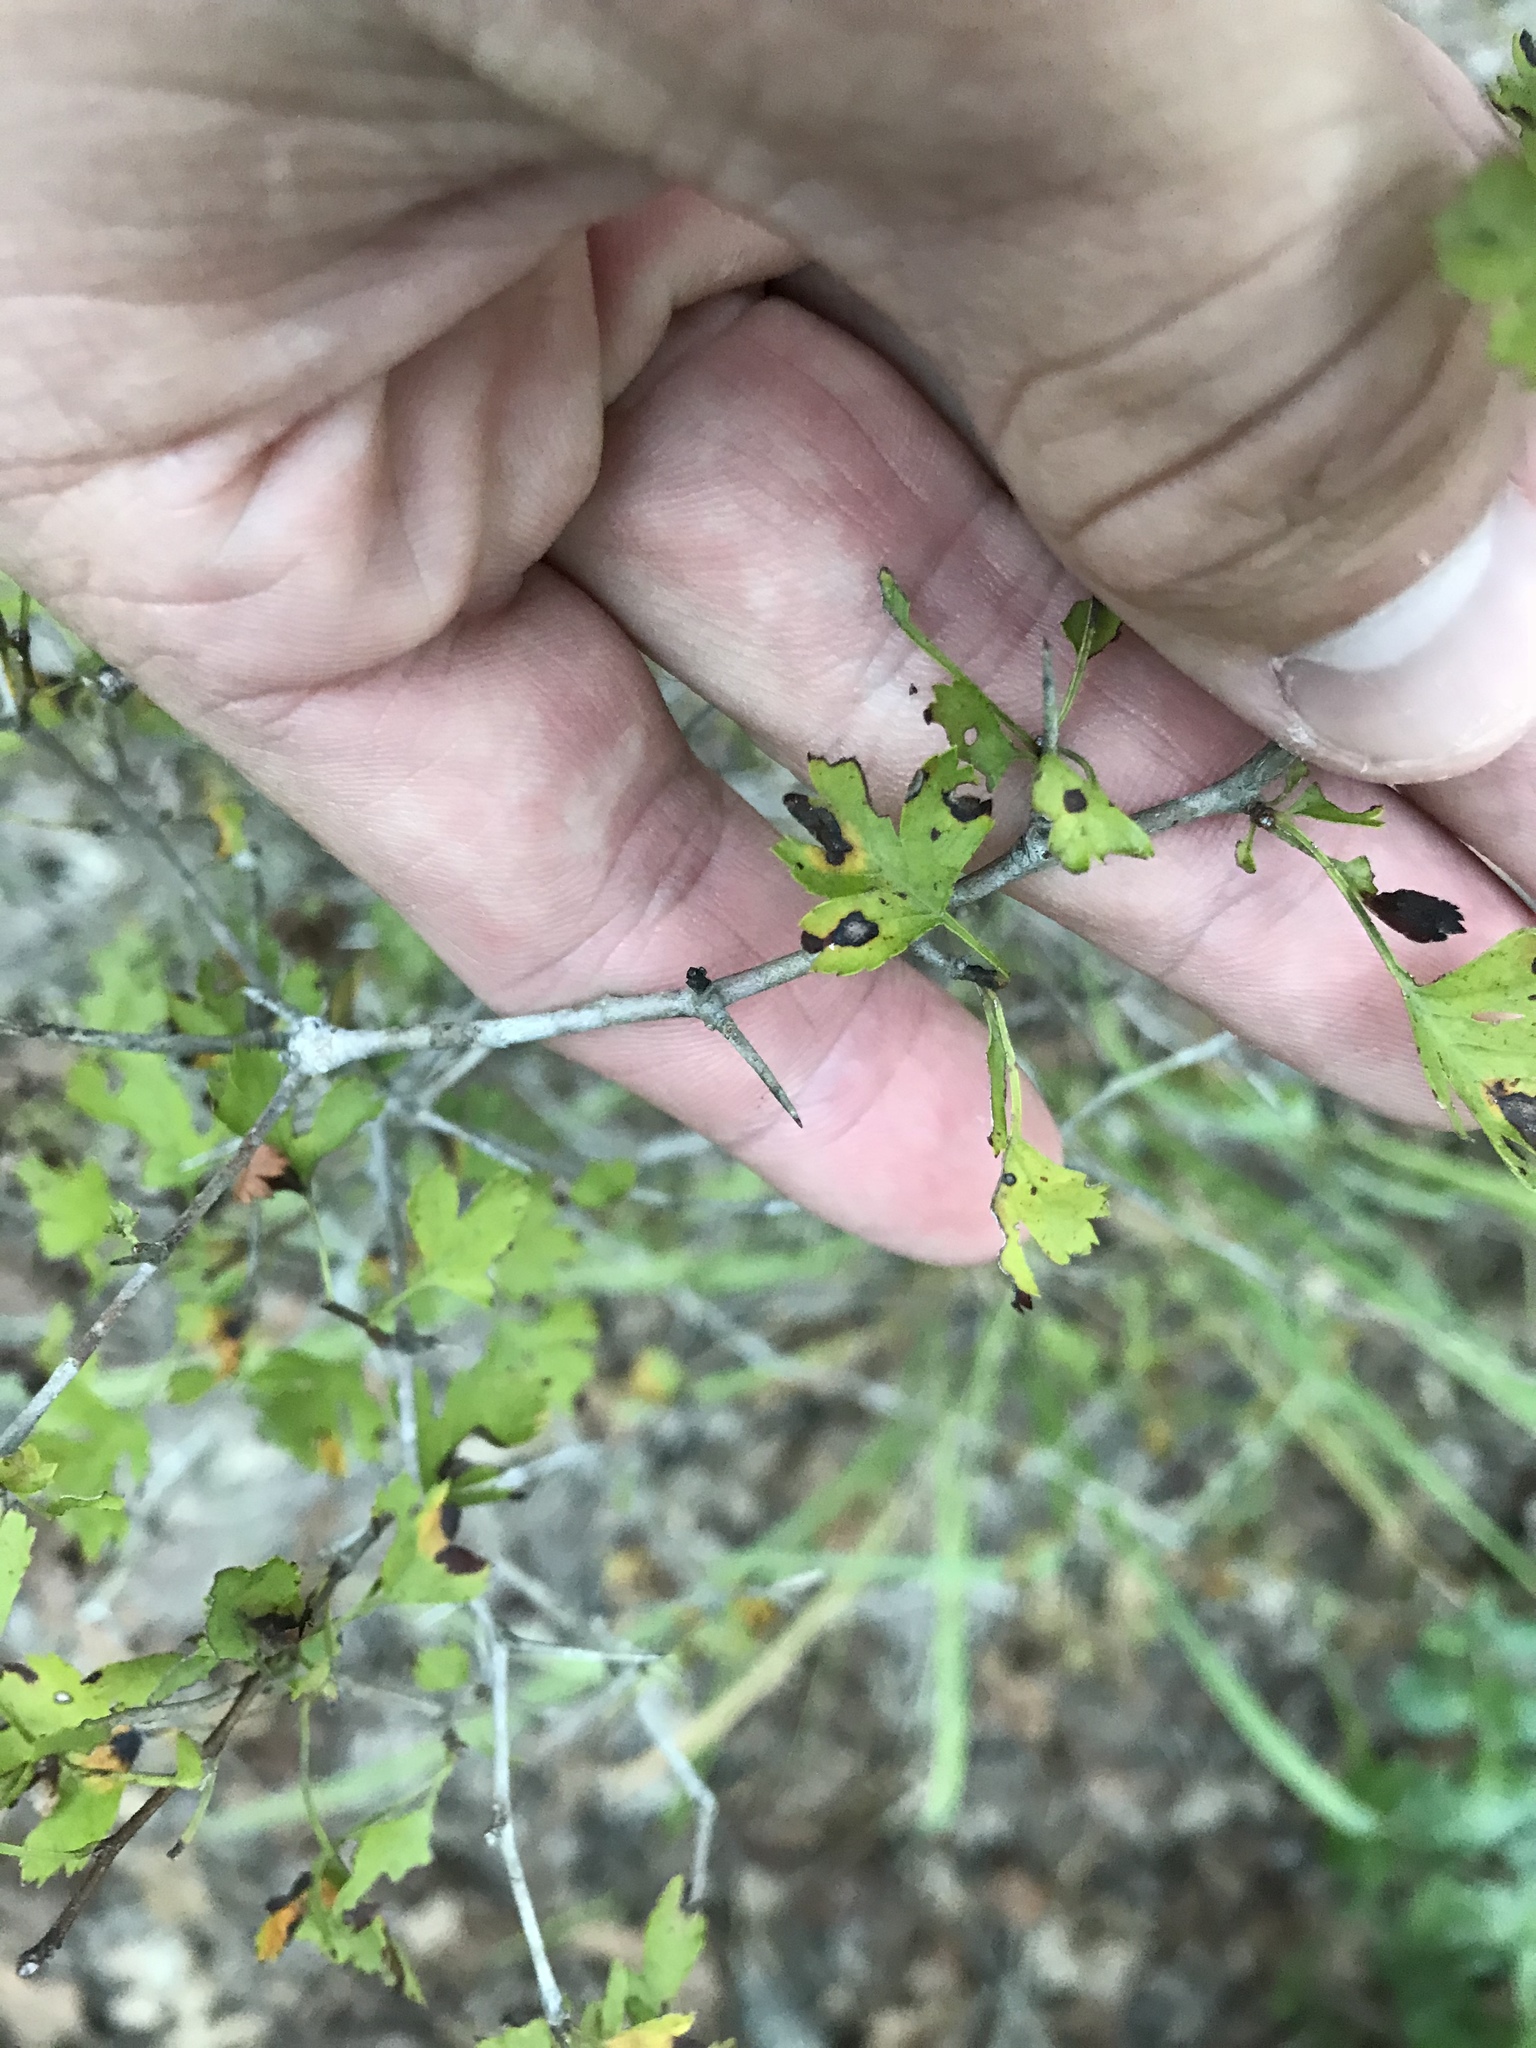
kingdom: Plantae
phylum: Tracheophyta
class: Magnoliopsida
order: Rosales
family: Rosaceae
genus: Crataegus
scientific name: Crataegus marshallii
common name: Parsley-hawthorn
